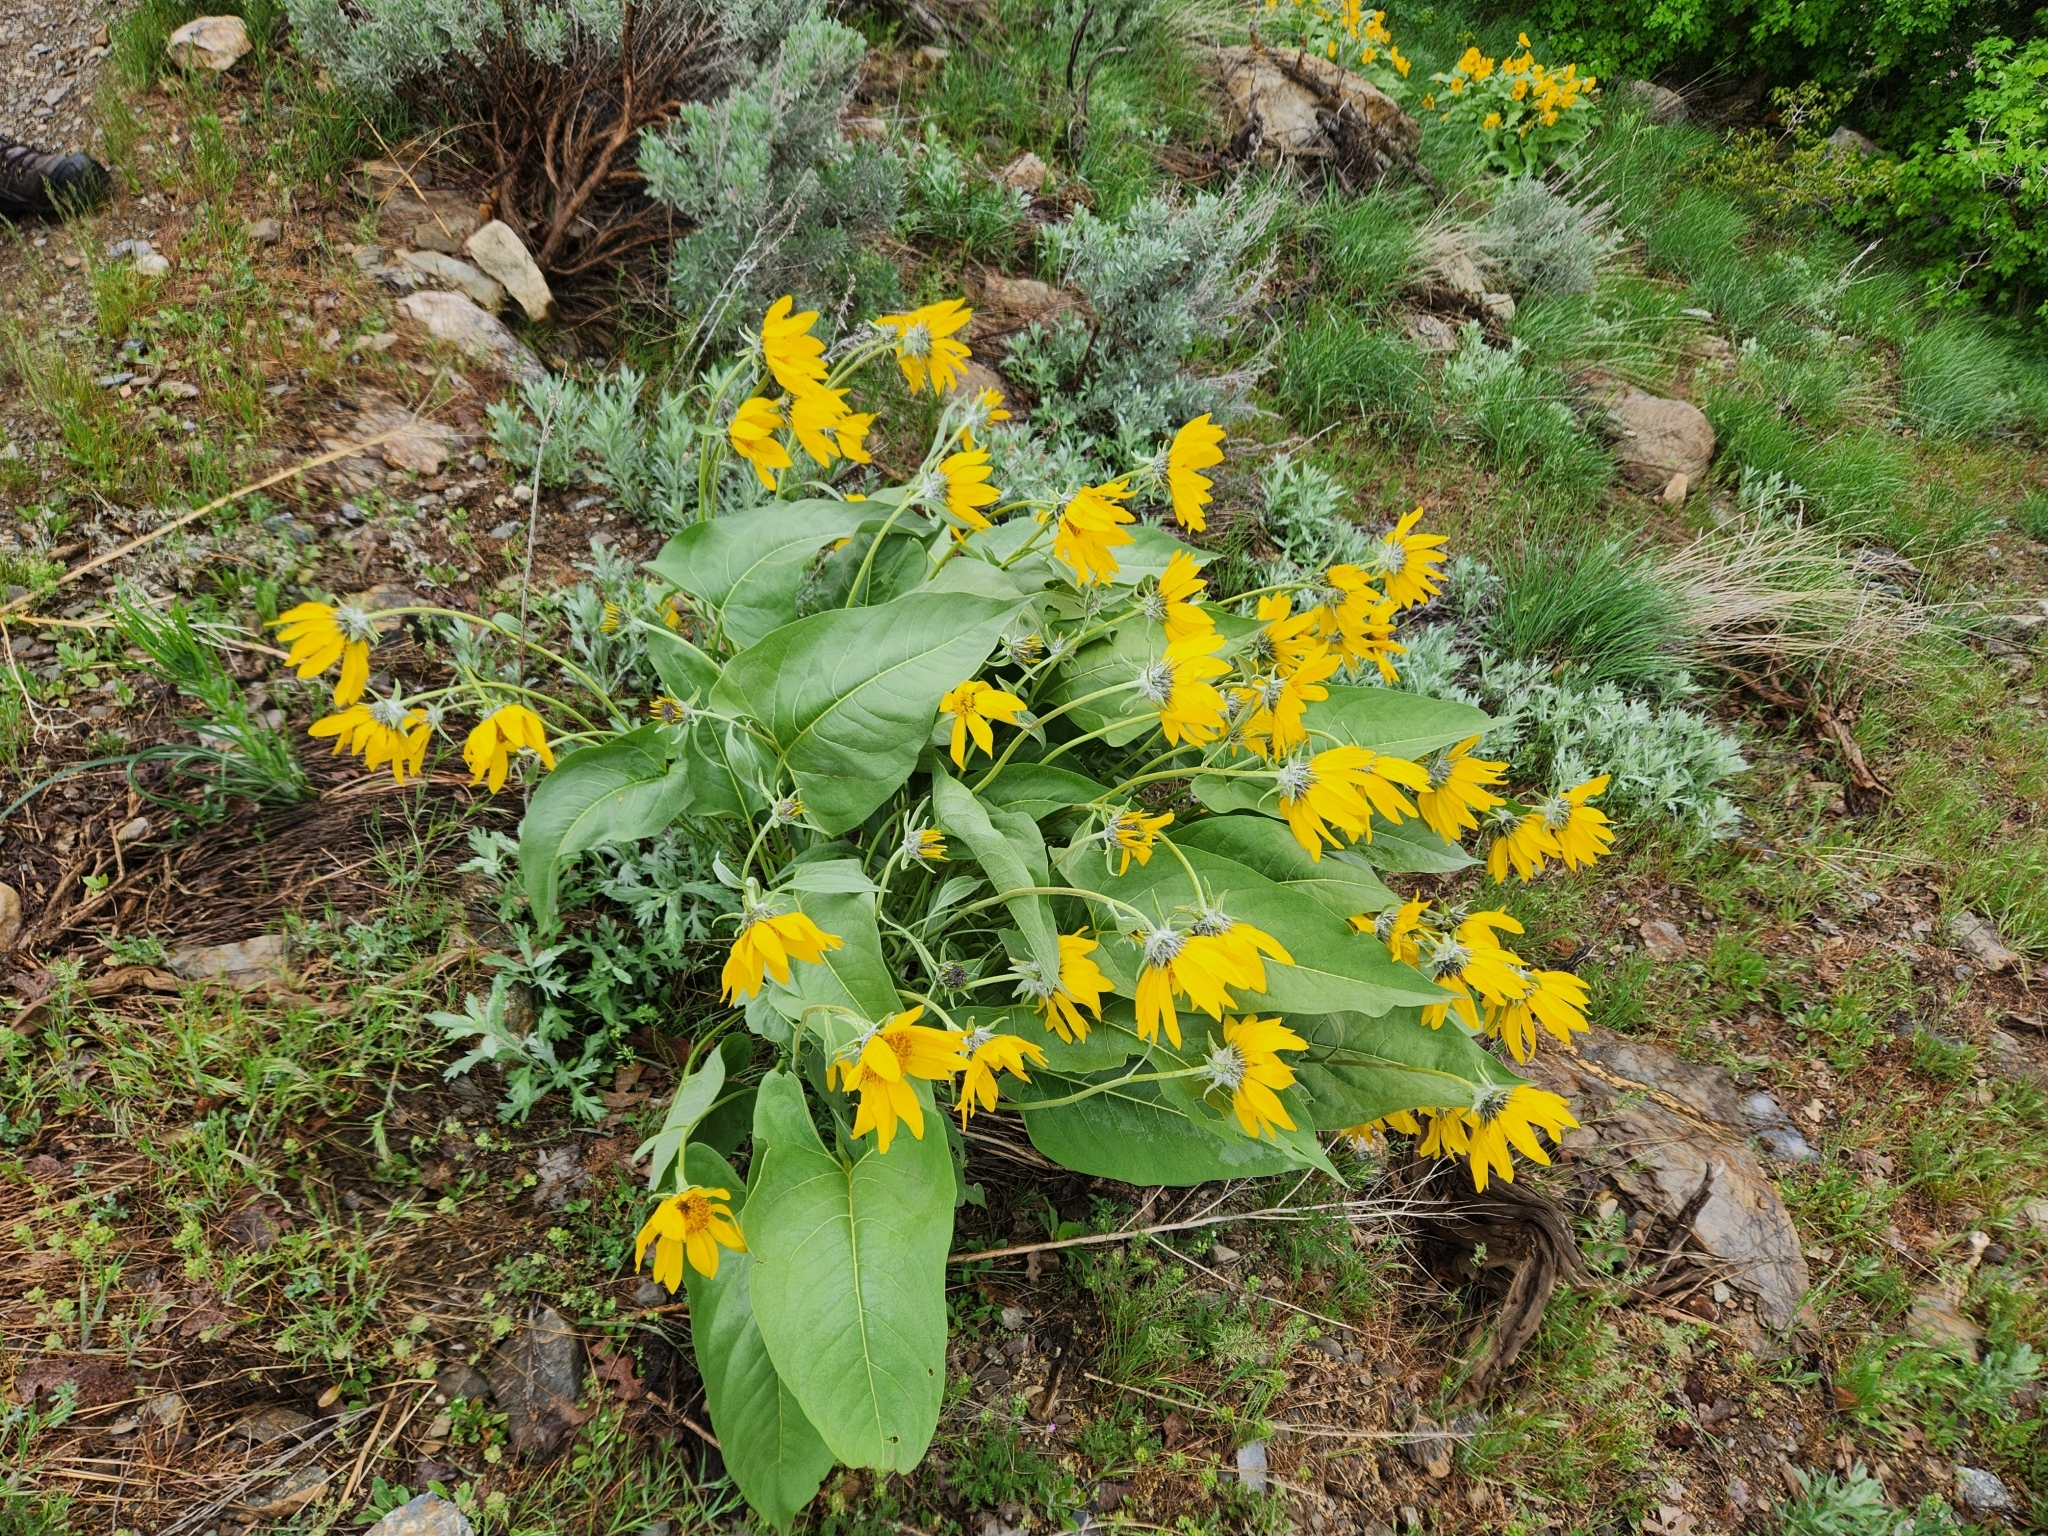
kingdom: Plantae
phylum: Tracheophyta
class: Magnoliopsida
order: Asterales
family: Asteraceae
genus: Wyethia
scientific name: Wyethia sagittata
